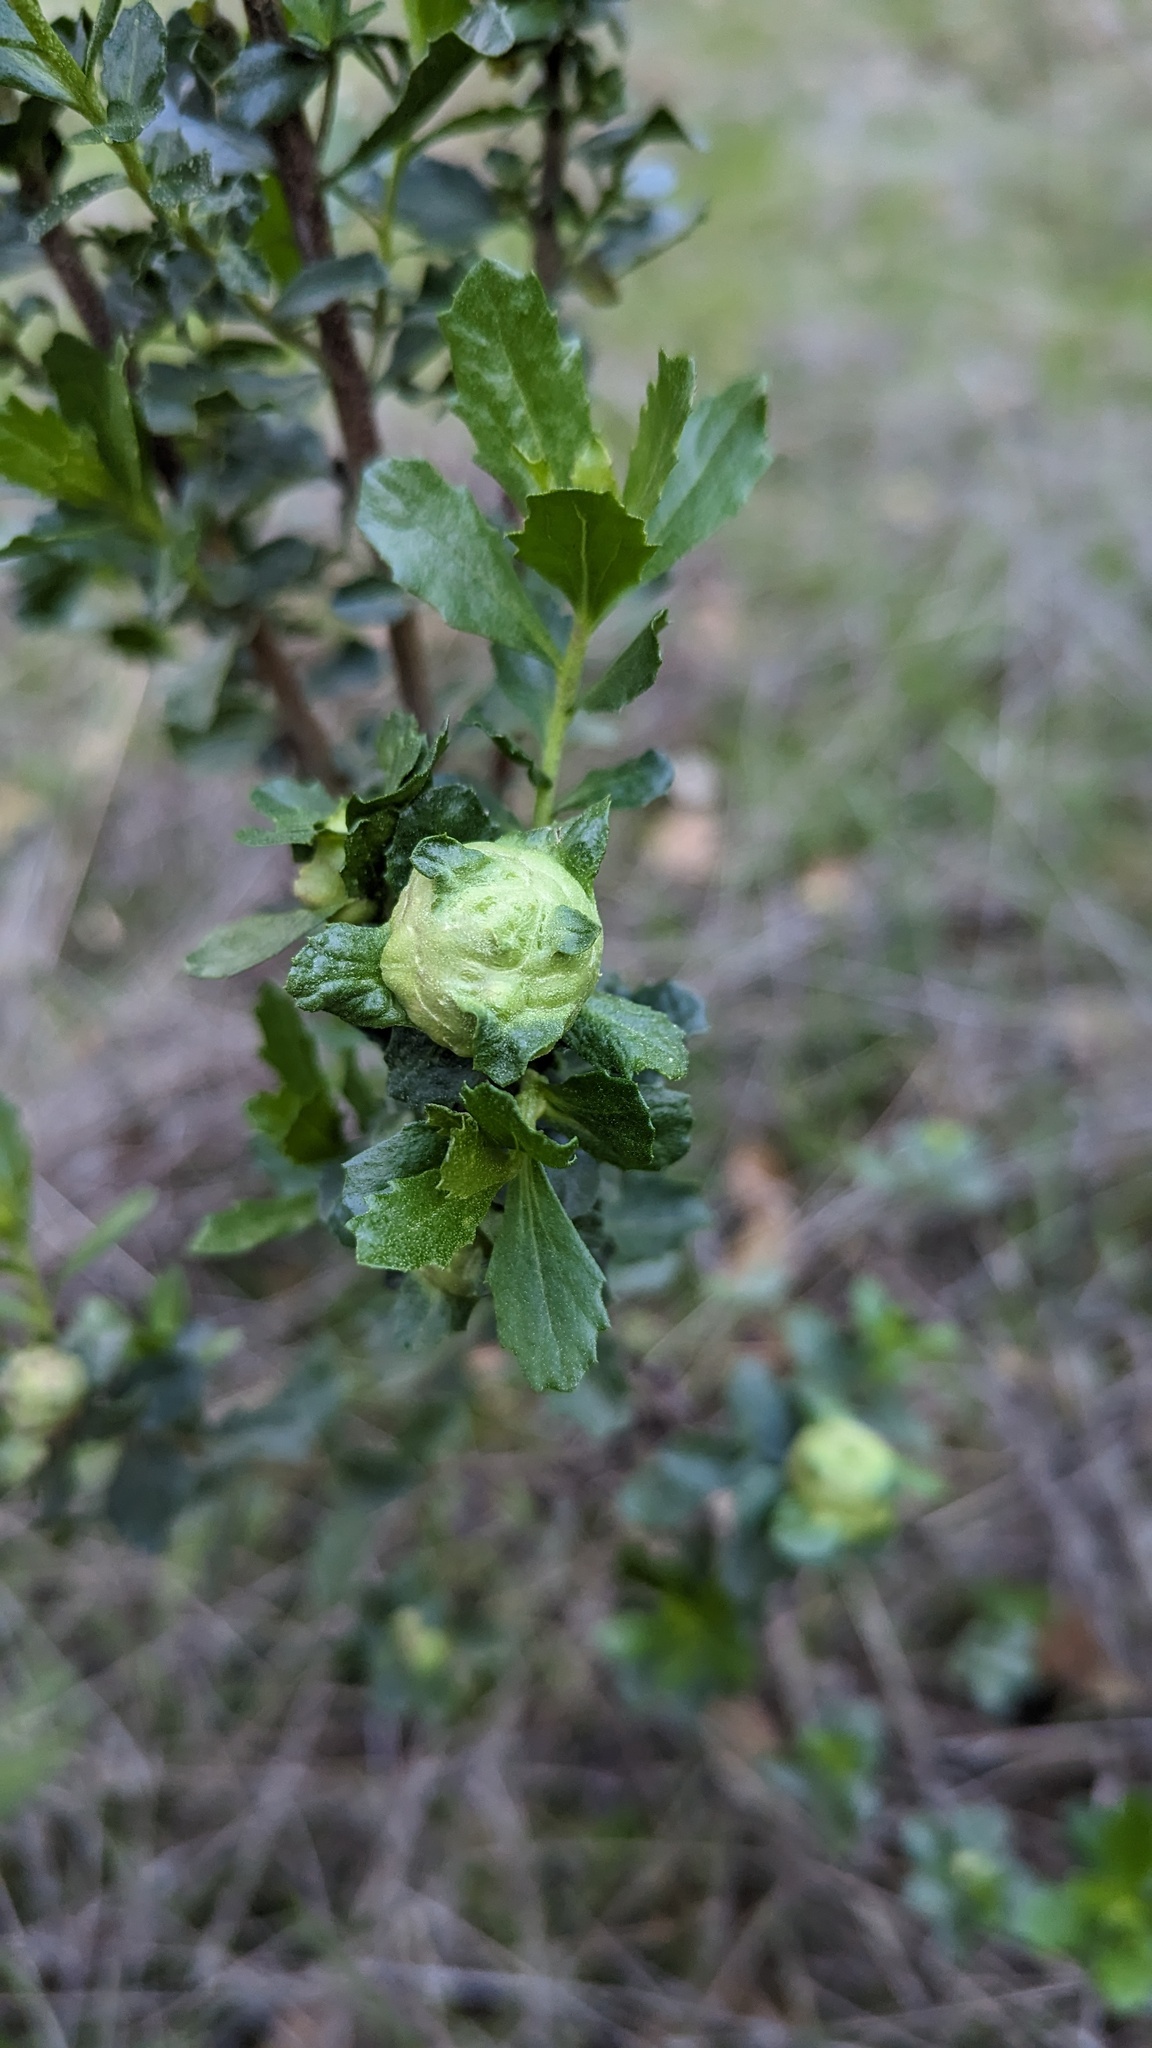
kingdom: Animalia
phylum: Arthropoda
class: Insecta
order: Diptera
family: Cecidomyiidae
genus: Rhopalomyia
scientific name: Rhopalomyia californica
